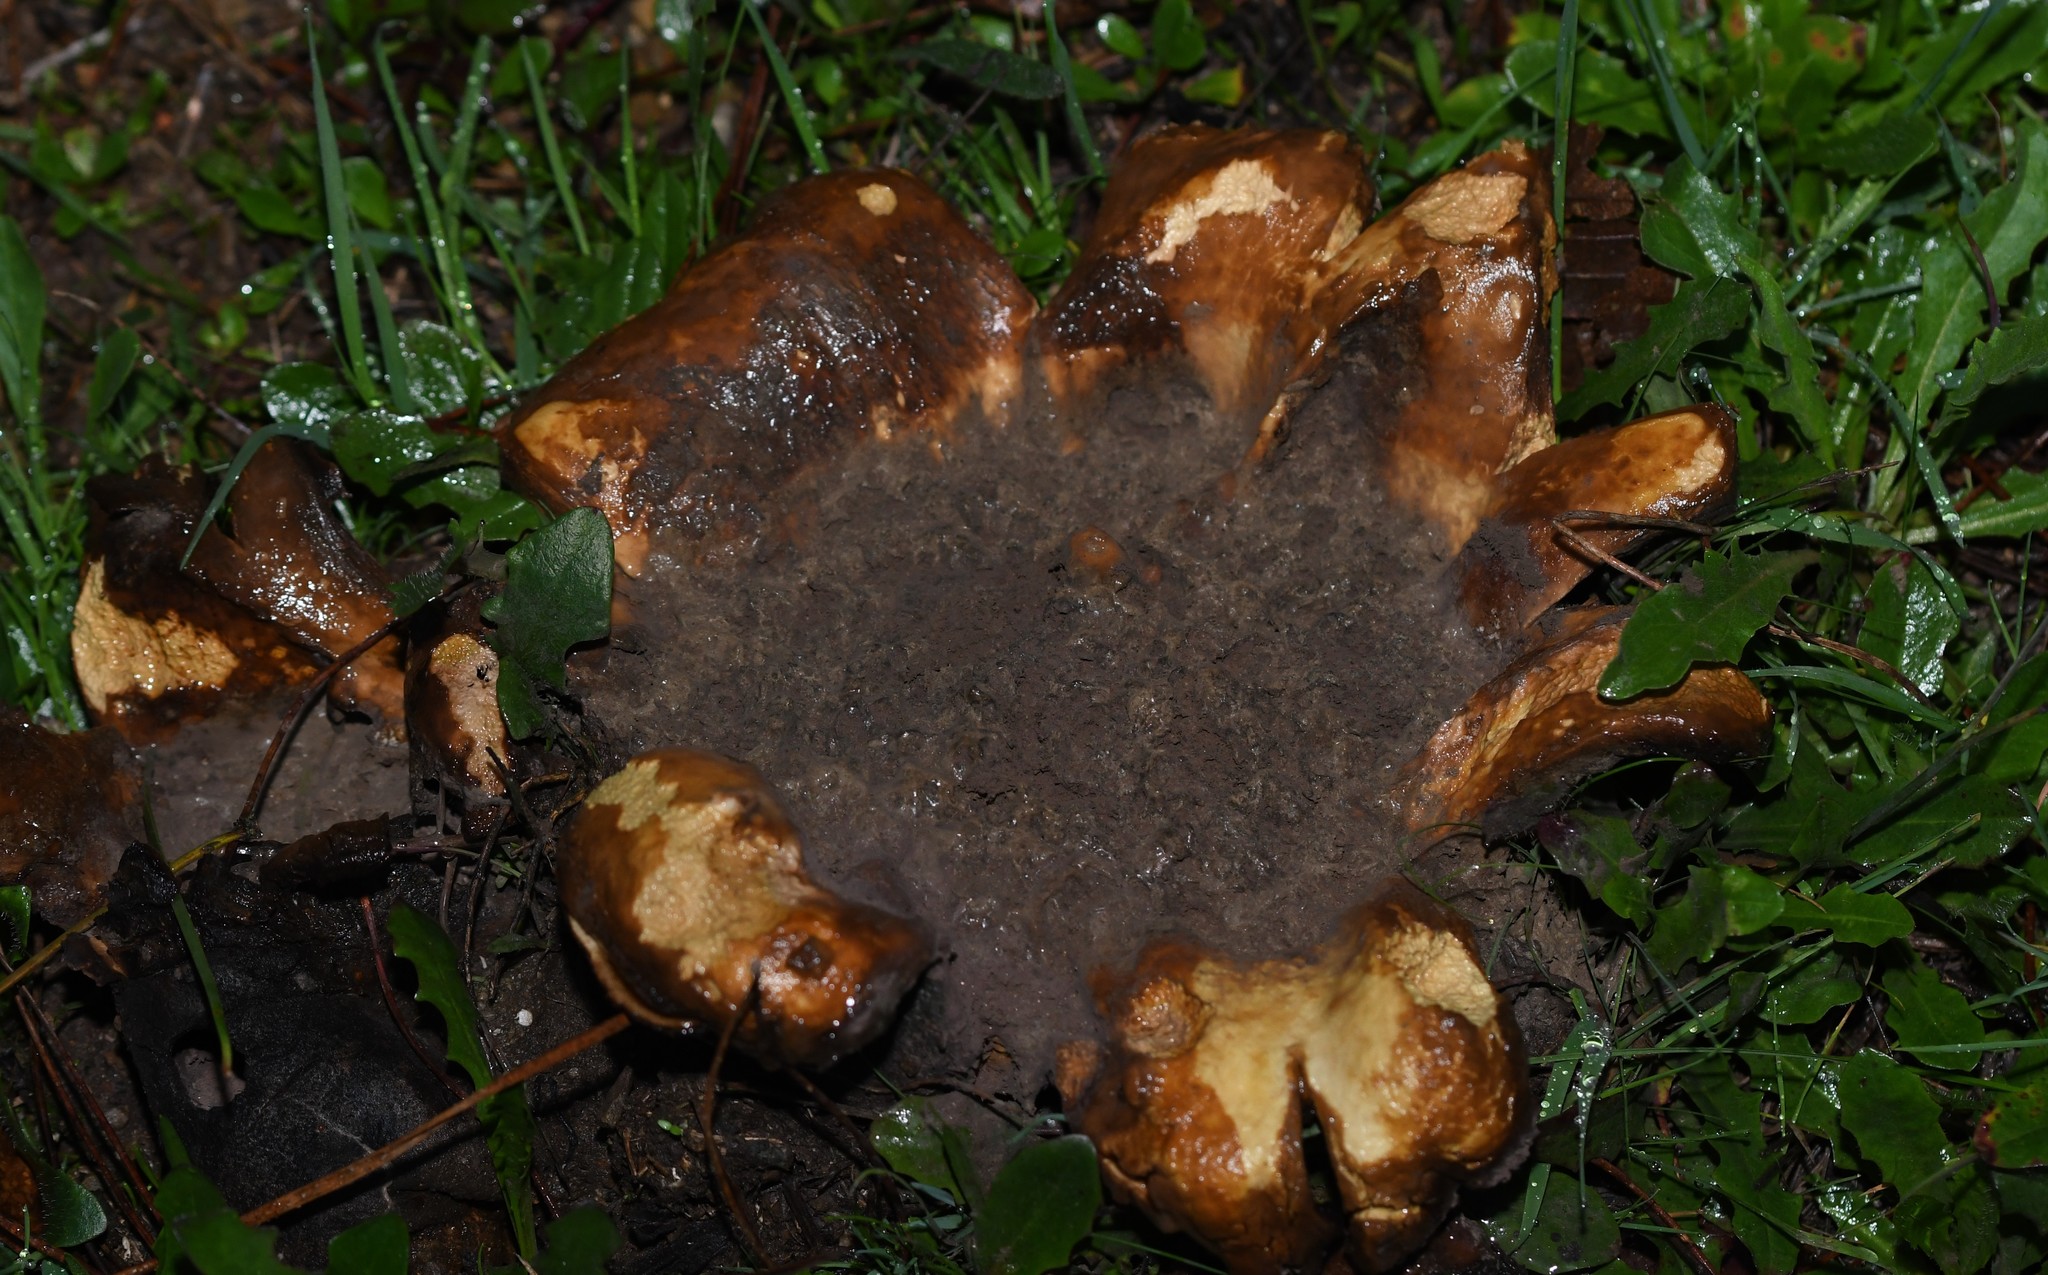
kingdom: Fungi
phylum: Basidiomycota
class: Agaricomycetes
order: Boletales
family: Sclerodermataceae
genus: Scleroderma
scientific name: Scleroderma polyrhizum
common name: Many-rooted earthball
